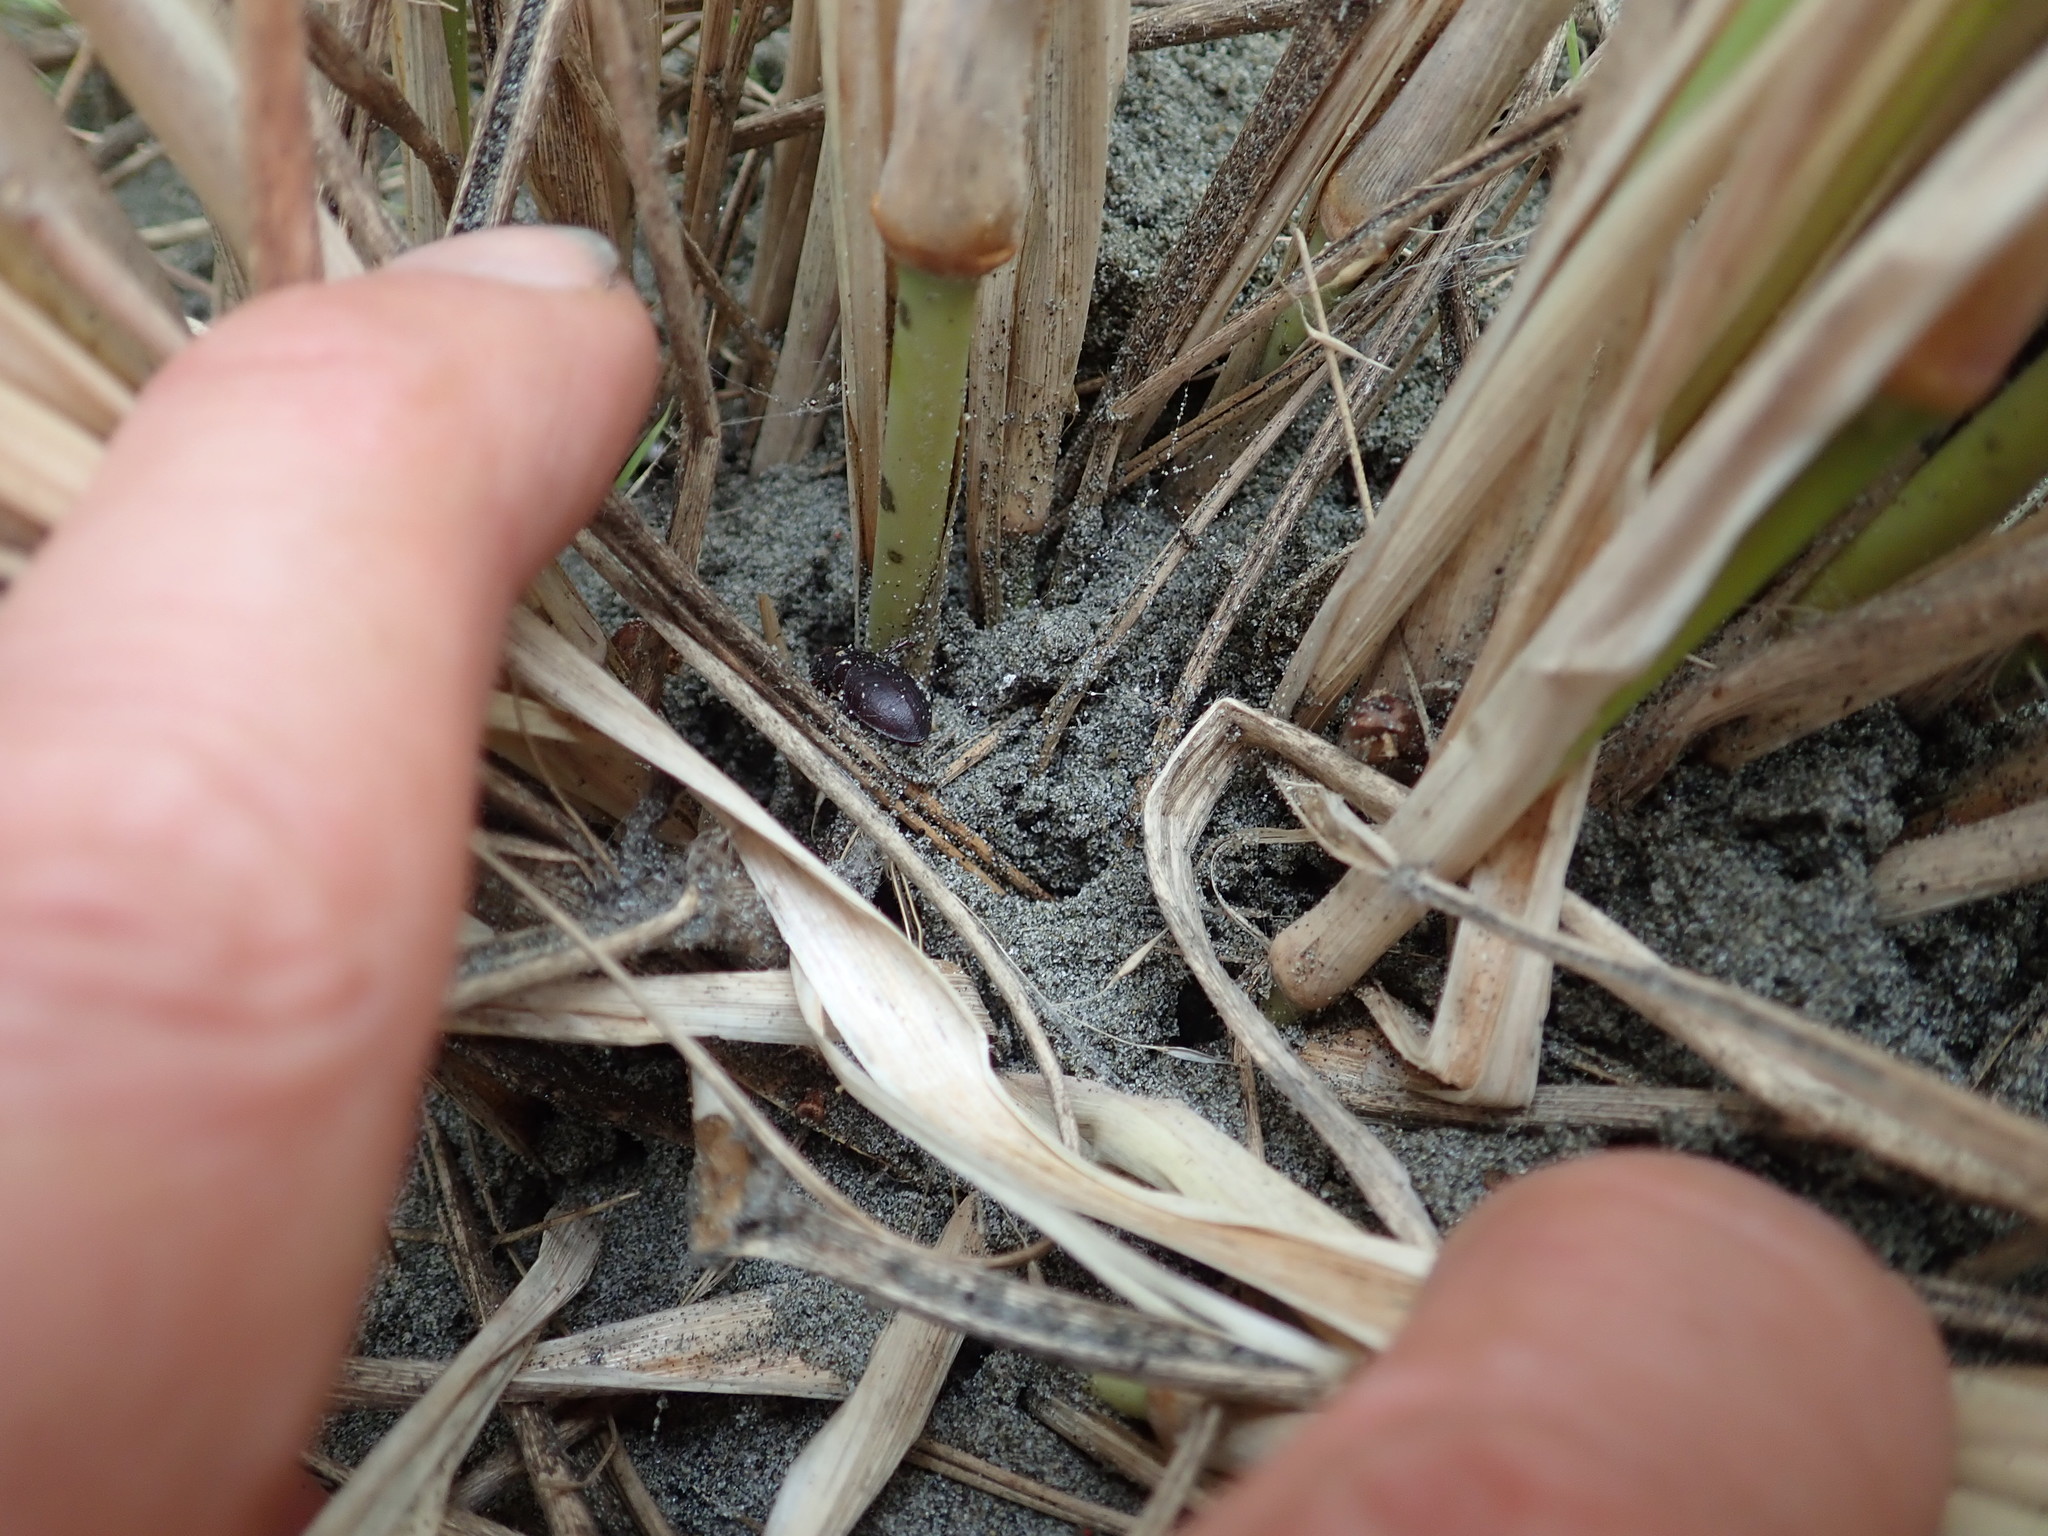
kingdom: Animalia
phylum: Arthropoda
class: Arachnida
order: Araneae
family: Mimetidae
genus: Australomimetus
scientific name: Australomimetus hartleyensis
